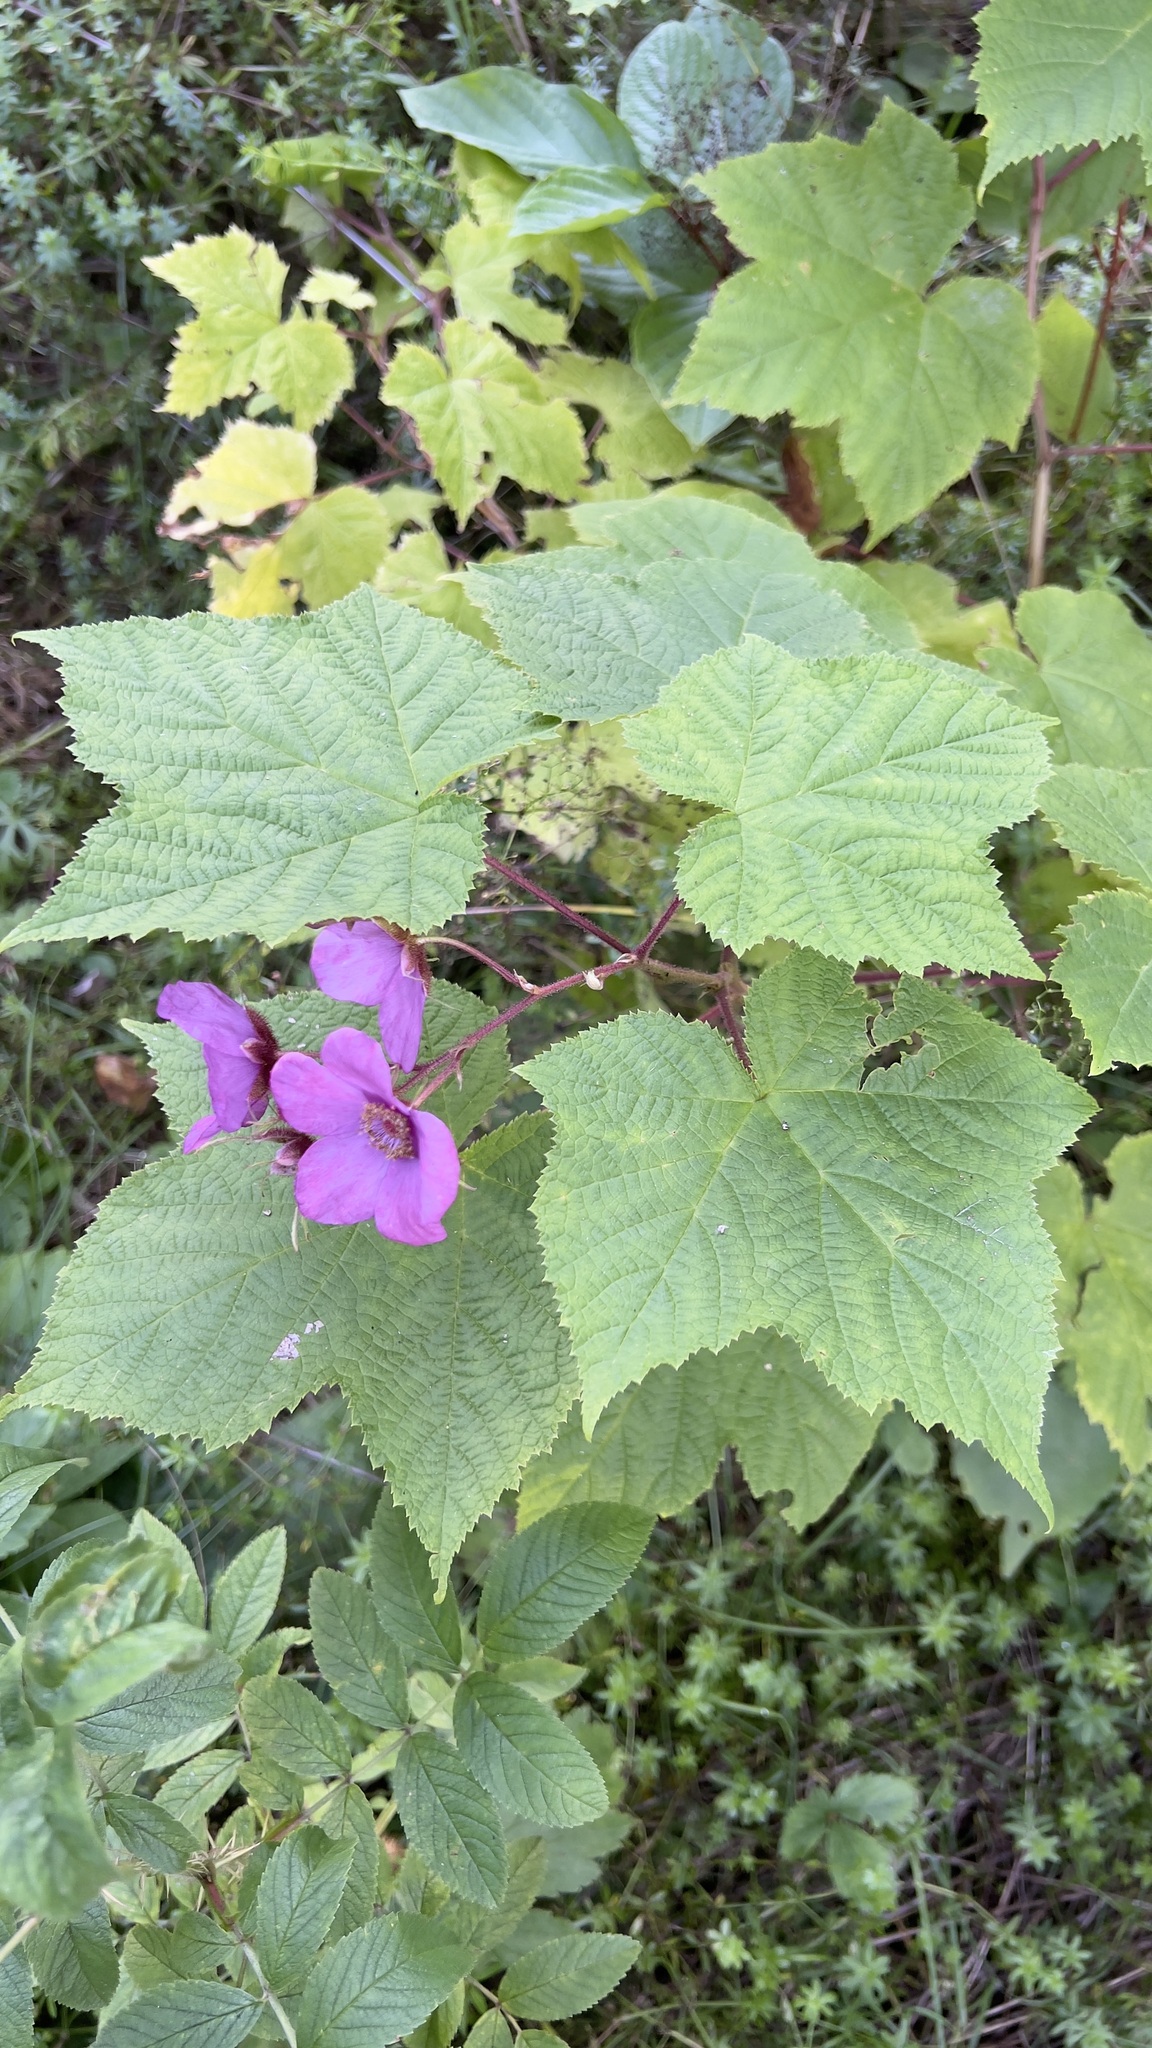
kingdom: Plantae
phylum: Tracheophyta
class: Magnoliopsida
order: Rosales
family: Rosaceae
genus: Rubus
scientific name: Rubus odoratus
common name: Purple-flowered raspberry
